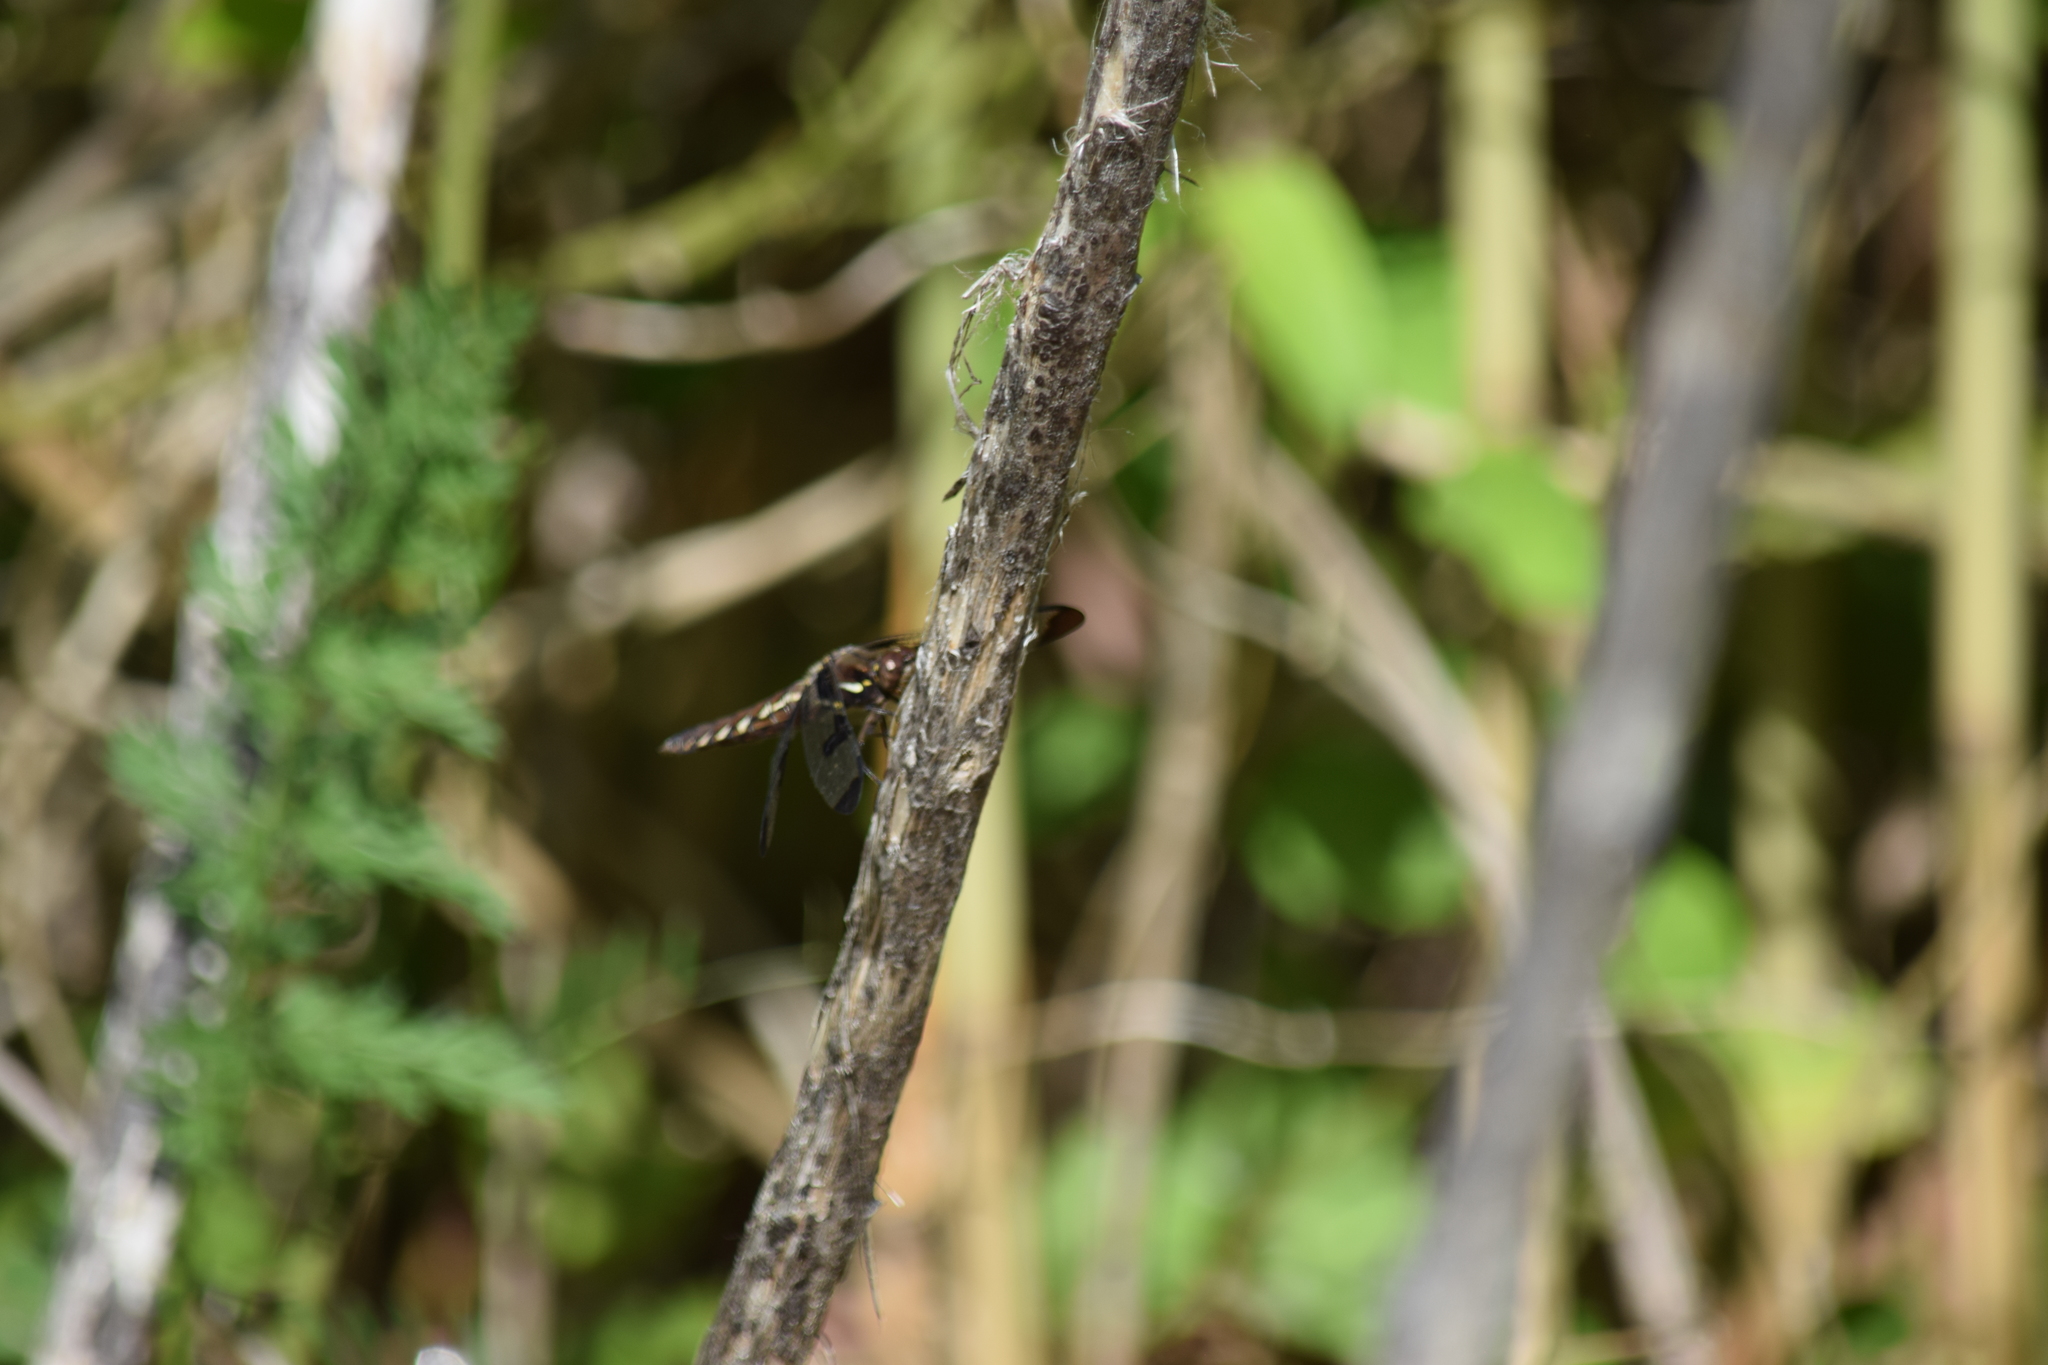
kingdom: Animalia
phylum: Arthropoda
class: Insecta
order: Odonata
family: Libellulidae
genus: Plathemis
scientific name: Plathemis lydia
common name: Common whitetail
